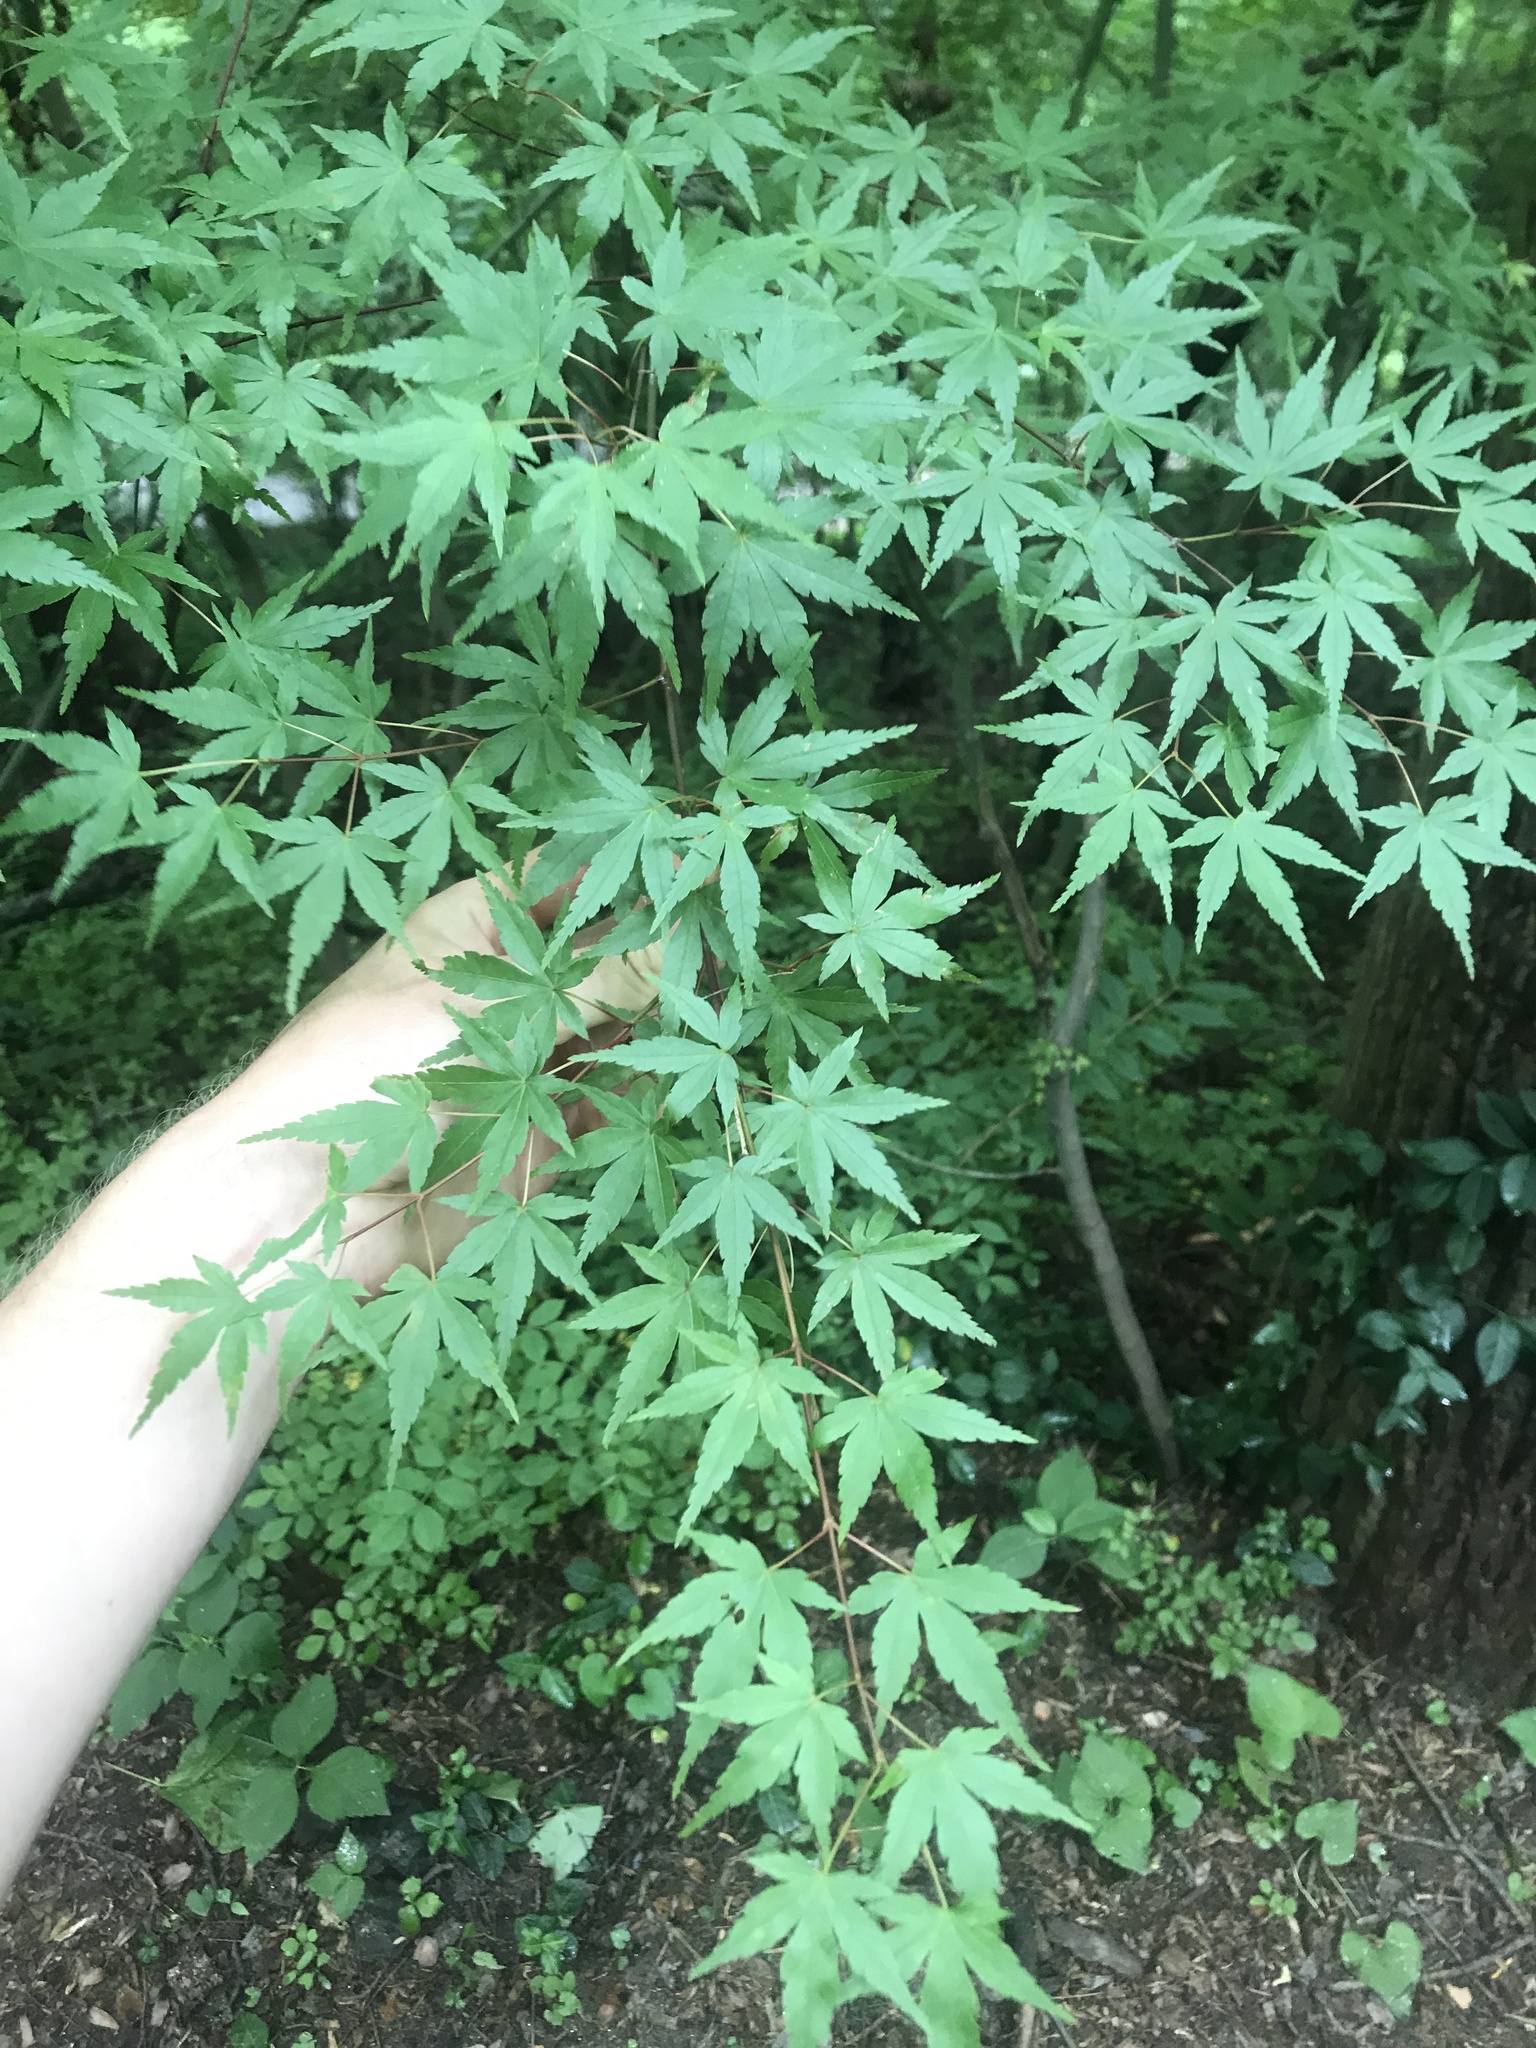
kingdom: Plantae
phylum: Tracheophyta
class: Magnoliopsida
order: Sapindales
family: Sapindaceae
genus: Acer
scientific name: Acer palmatum
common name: Japanese maple
